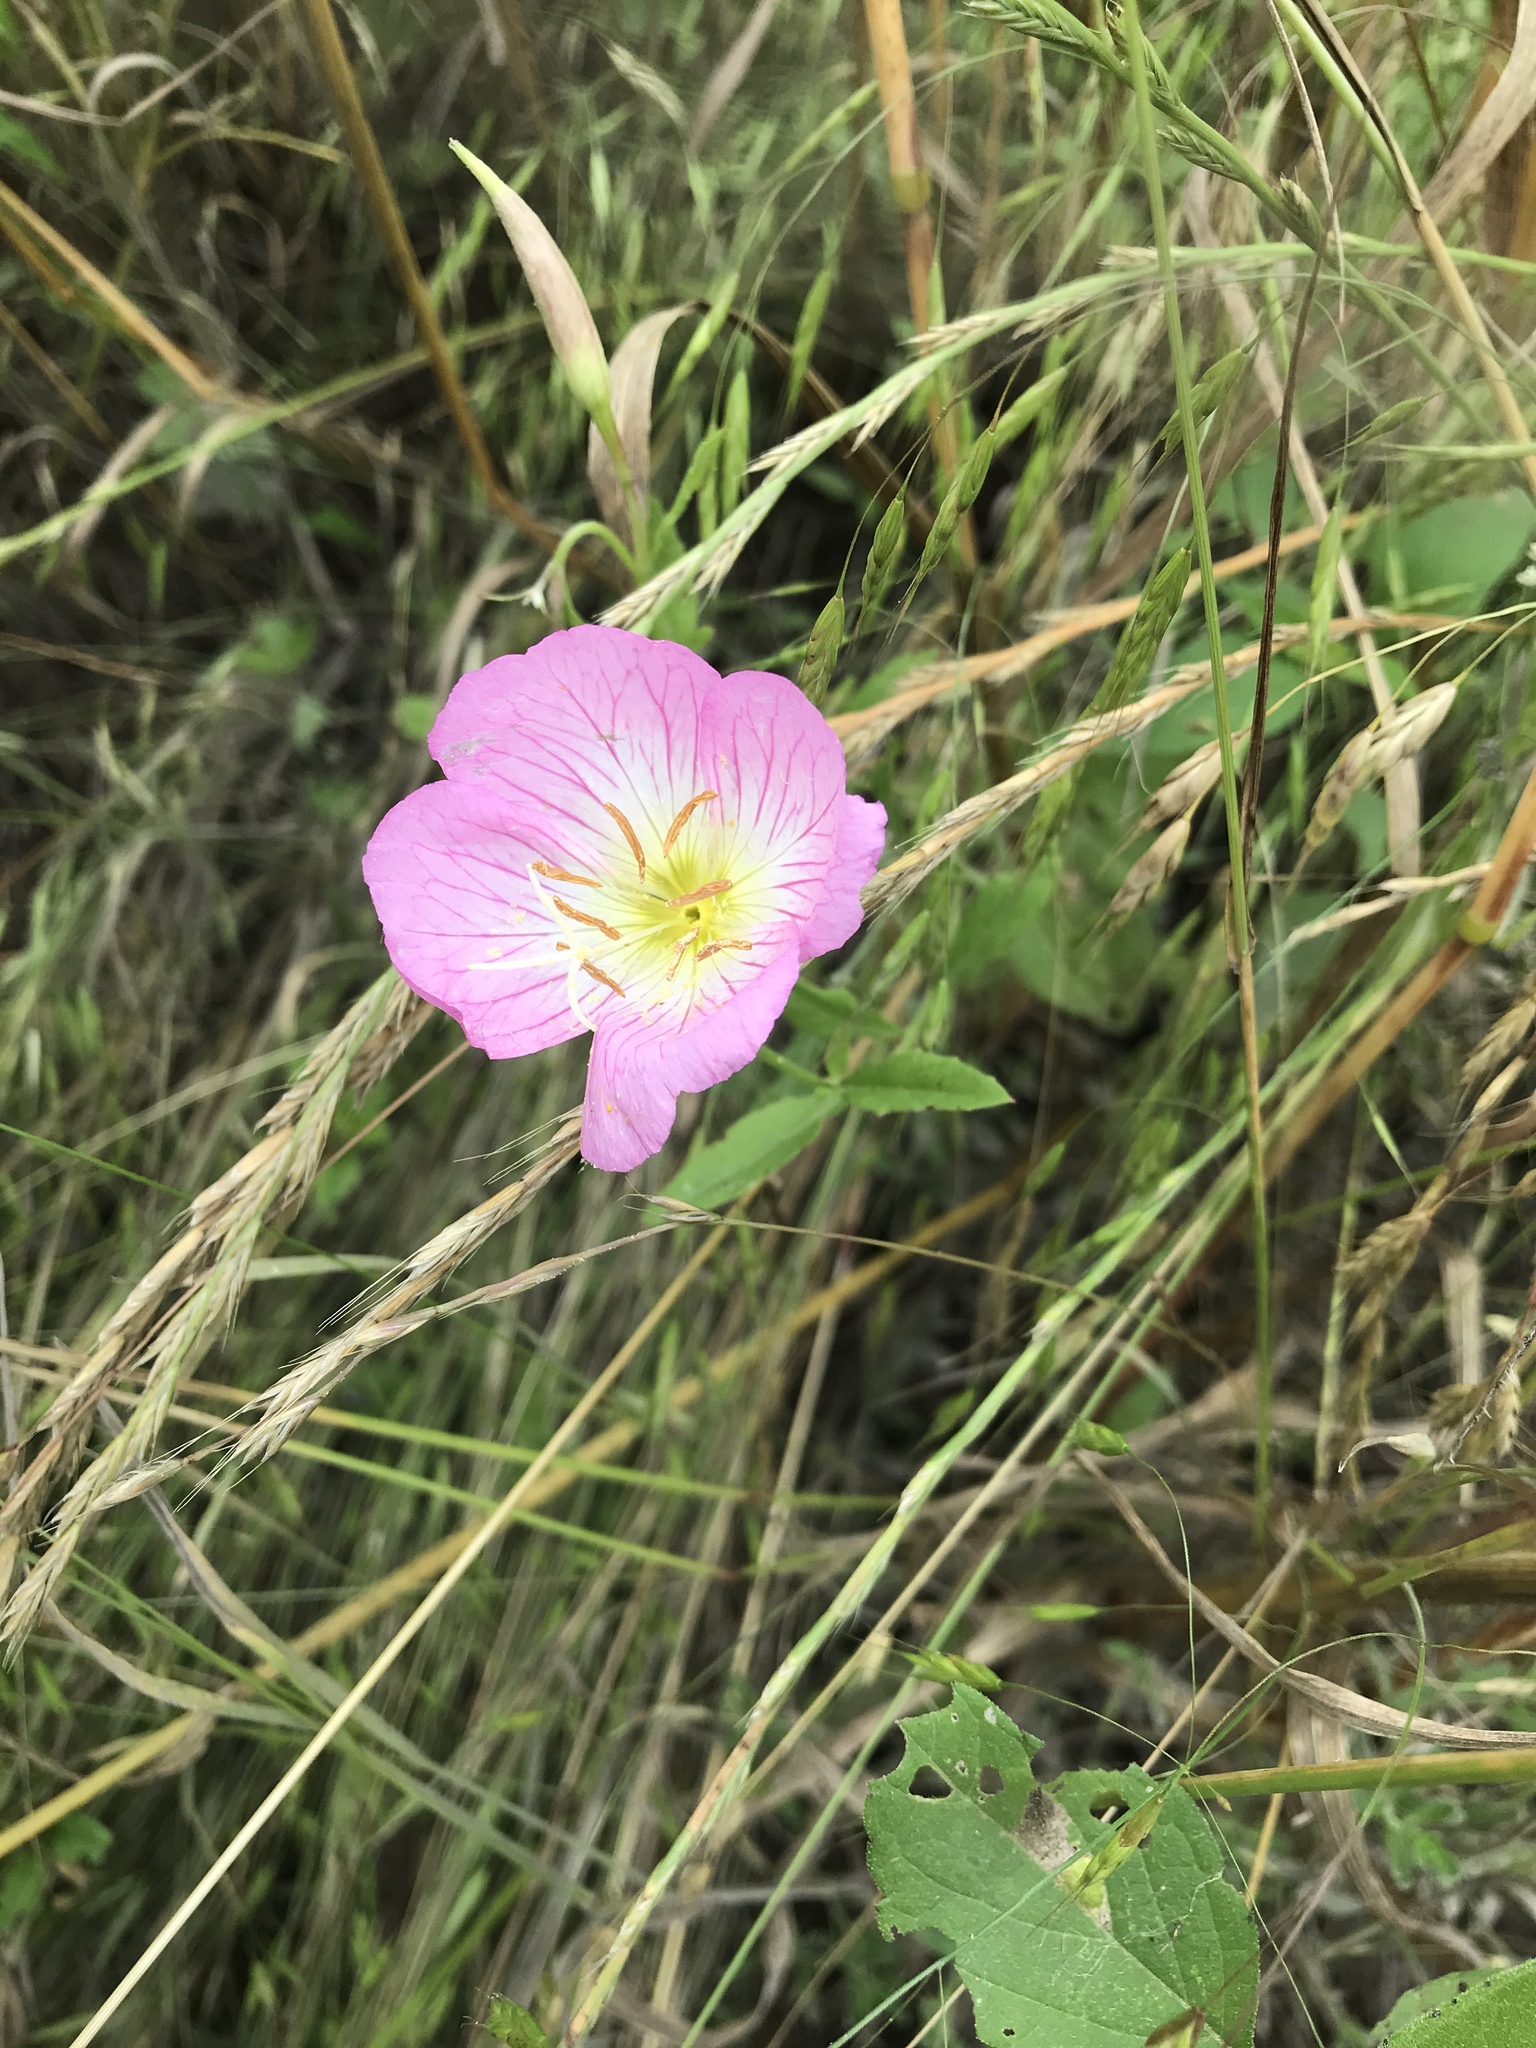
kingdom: Plantae
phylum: Tracheophyta
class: Magnoliopsida
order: Myrtales
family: Onagraceae
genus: Oenothera
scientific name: Oenothera speciosa
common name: White evening-primrose
